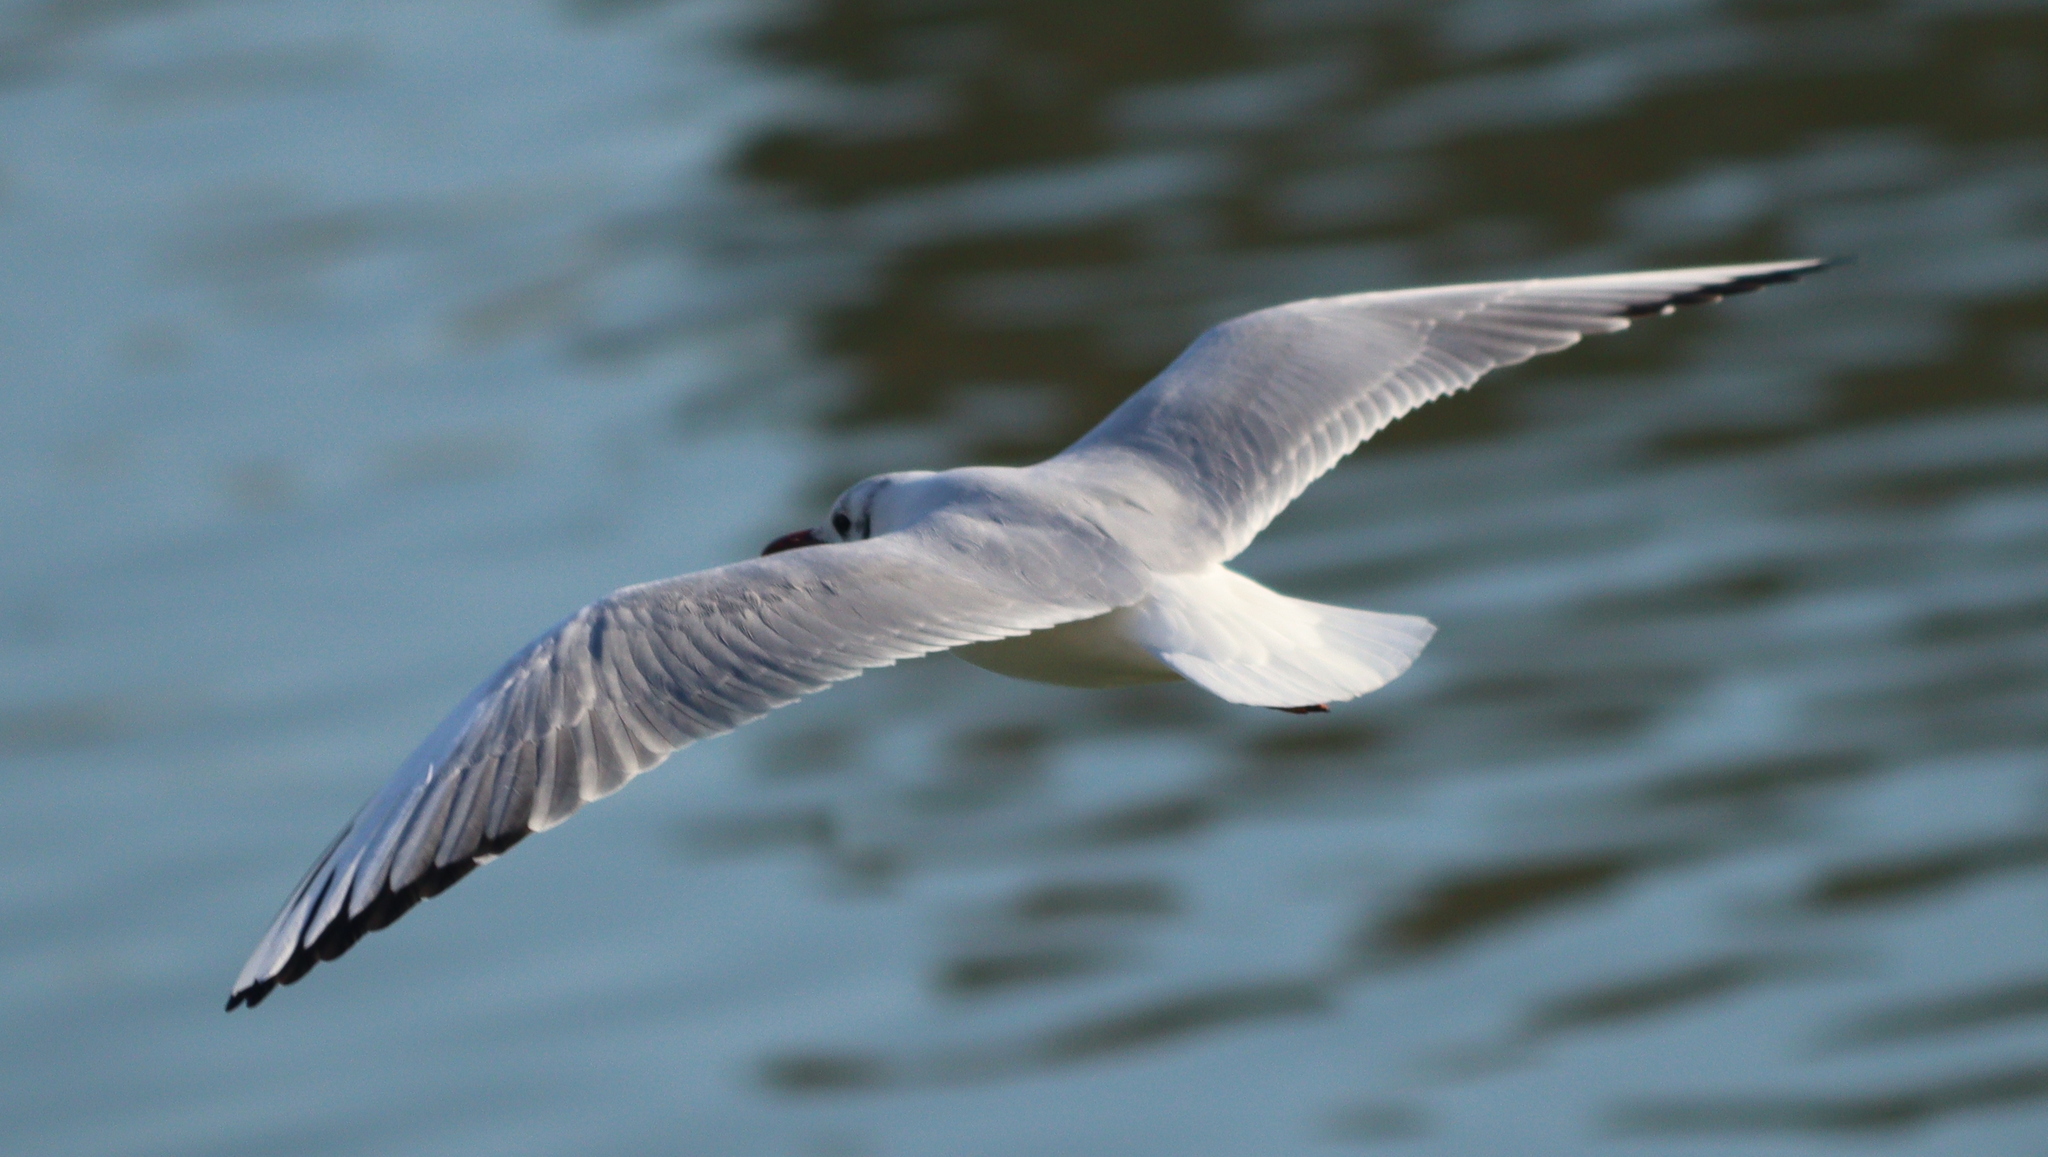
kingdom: Animalia
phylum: Chordata
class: Aves
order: Charadriiformes
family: Laridae
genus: Chroicocephalus
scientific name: Chroicocephalus ridibundus
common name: Black-headed gull
